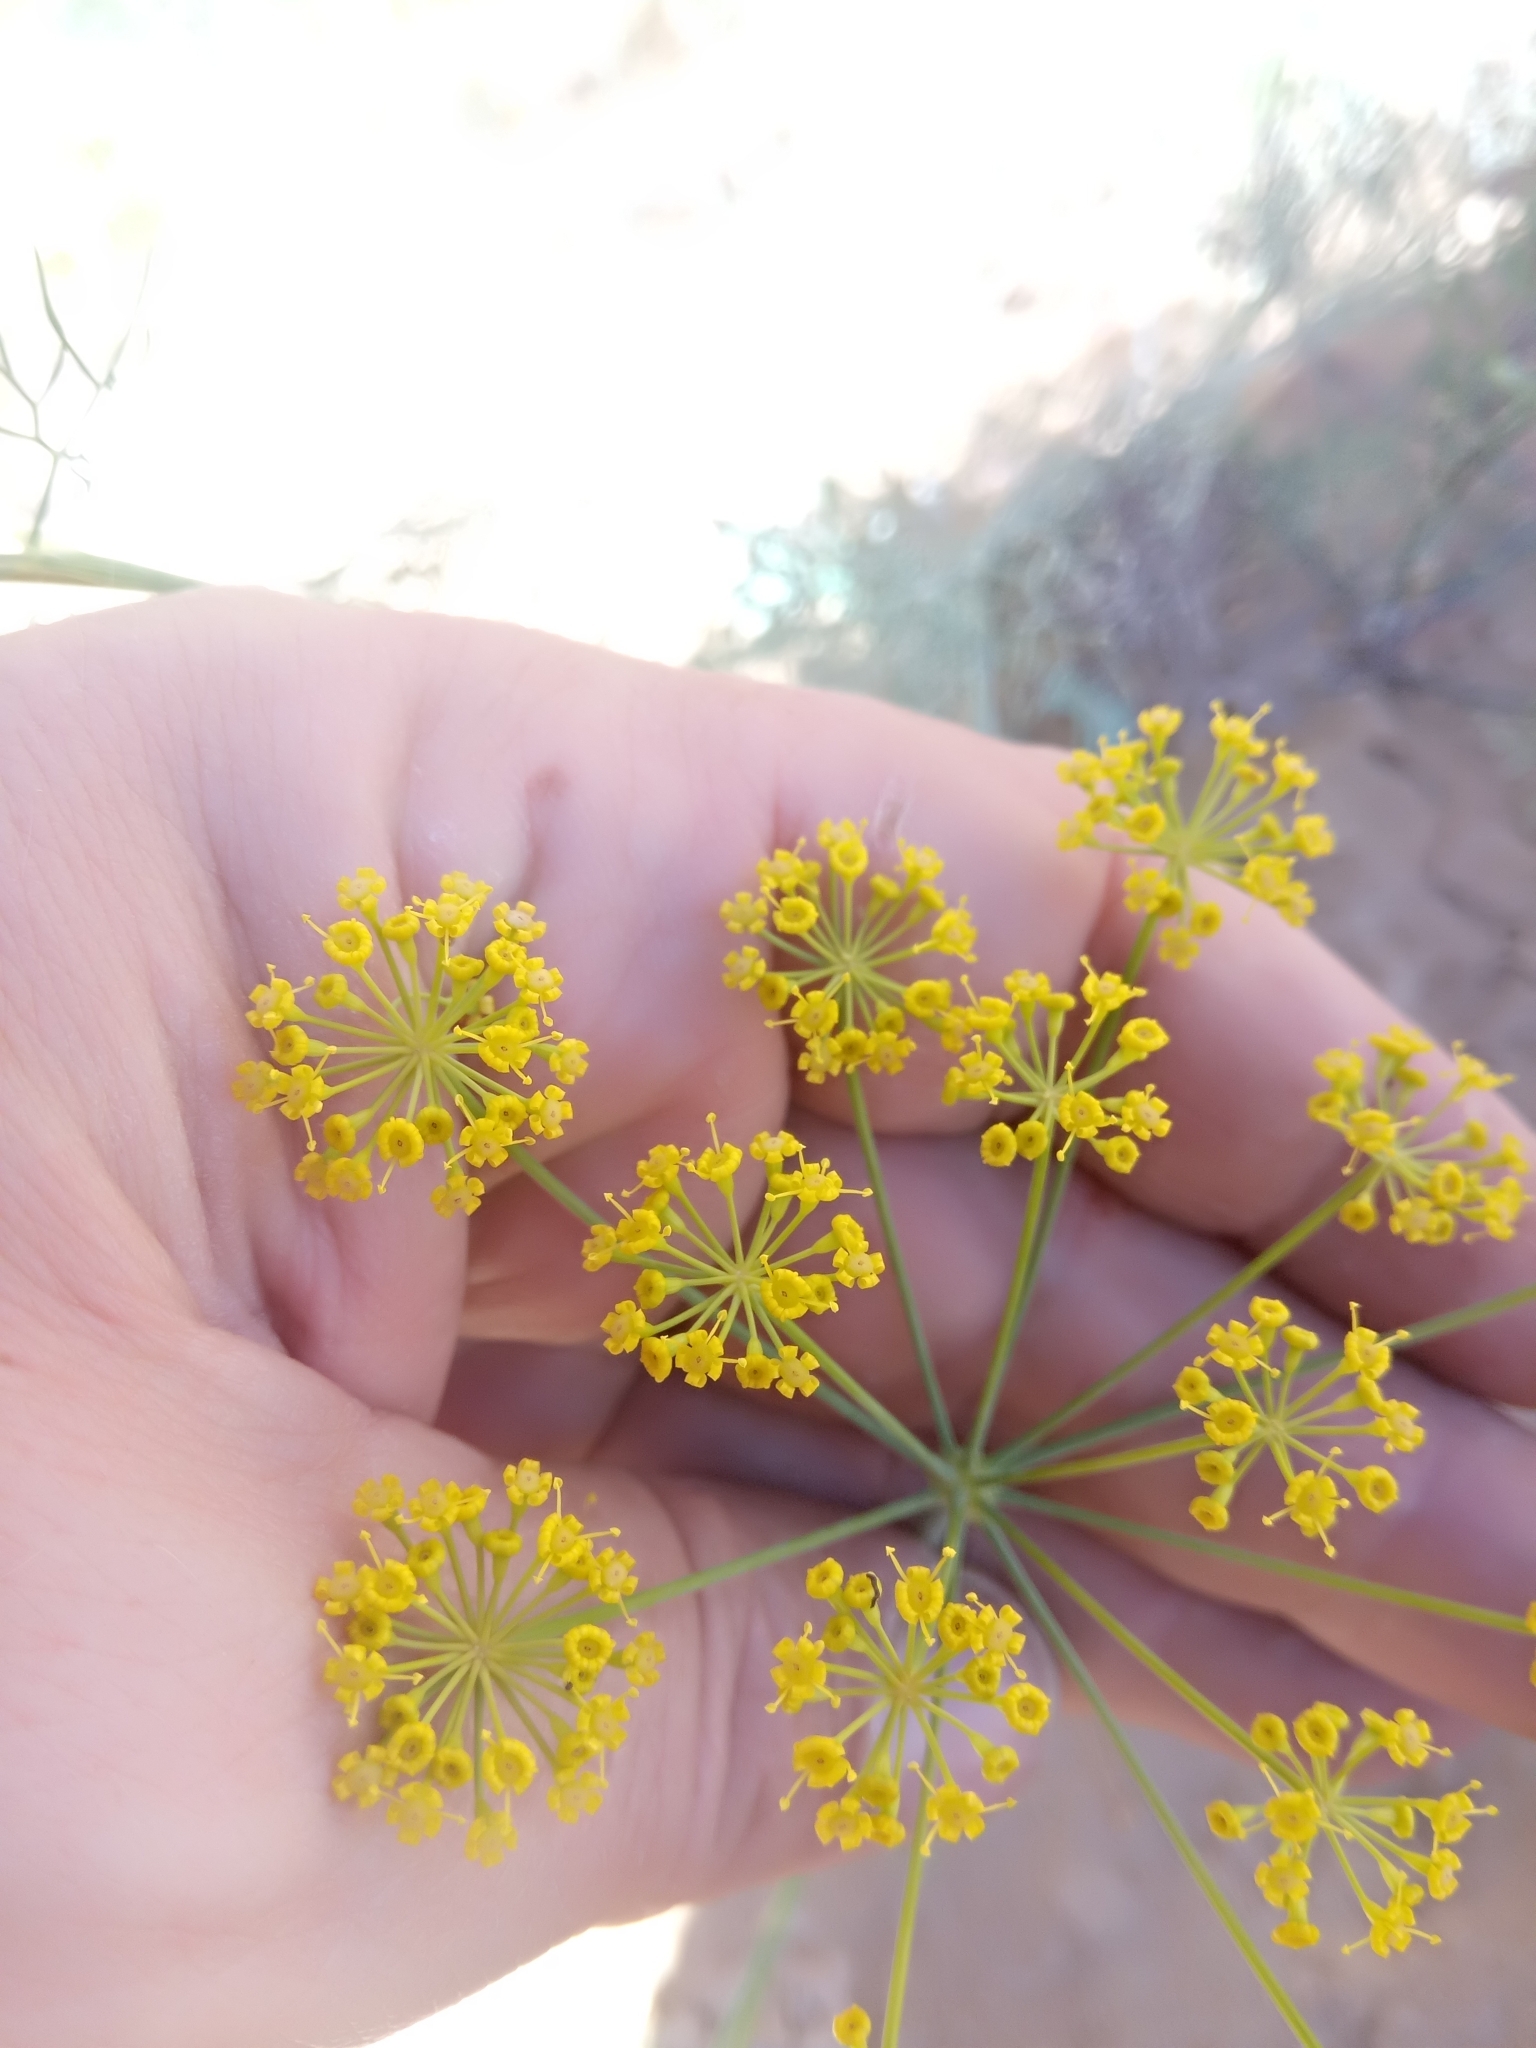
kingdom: Plantae
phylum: Tracheophyta
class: Magnoliopsida
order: Apiales
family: Apiaceae
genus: Foeniculum
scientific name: Foeniculum vulgare
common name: Fennel
